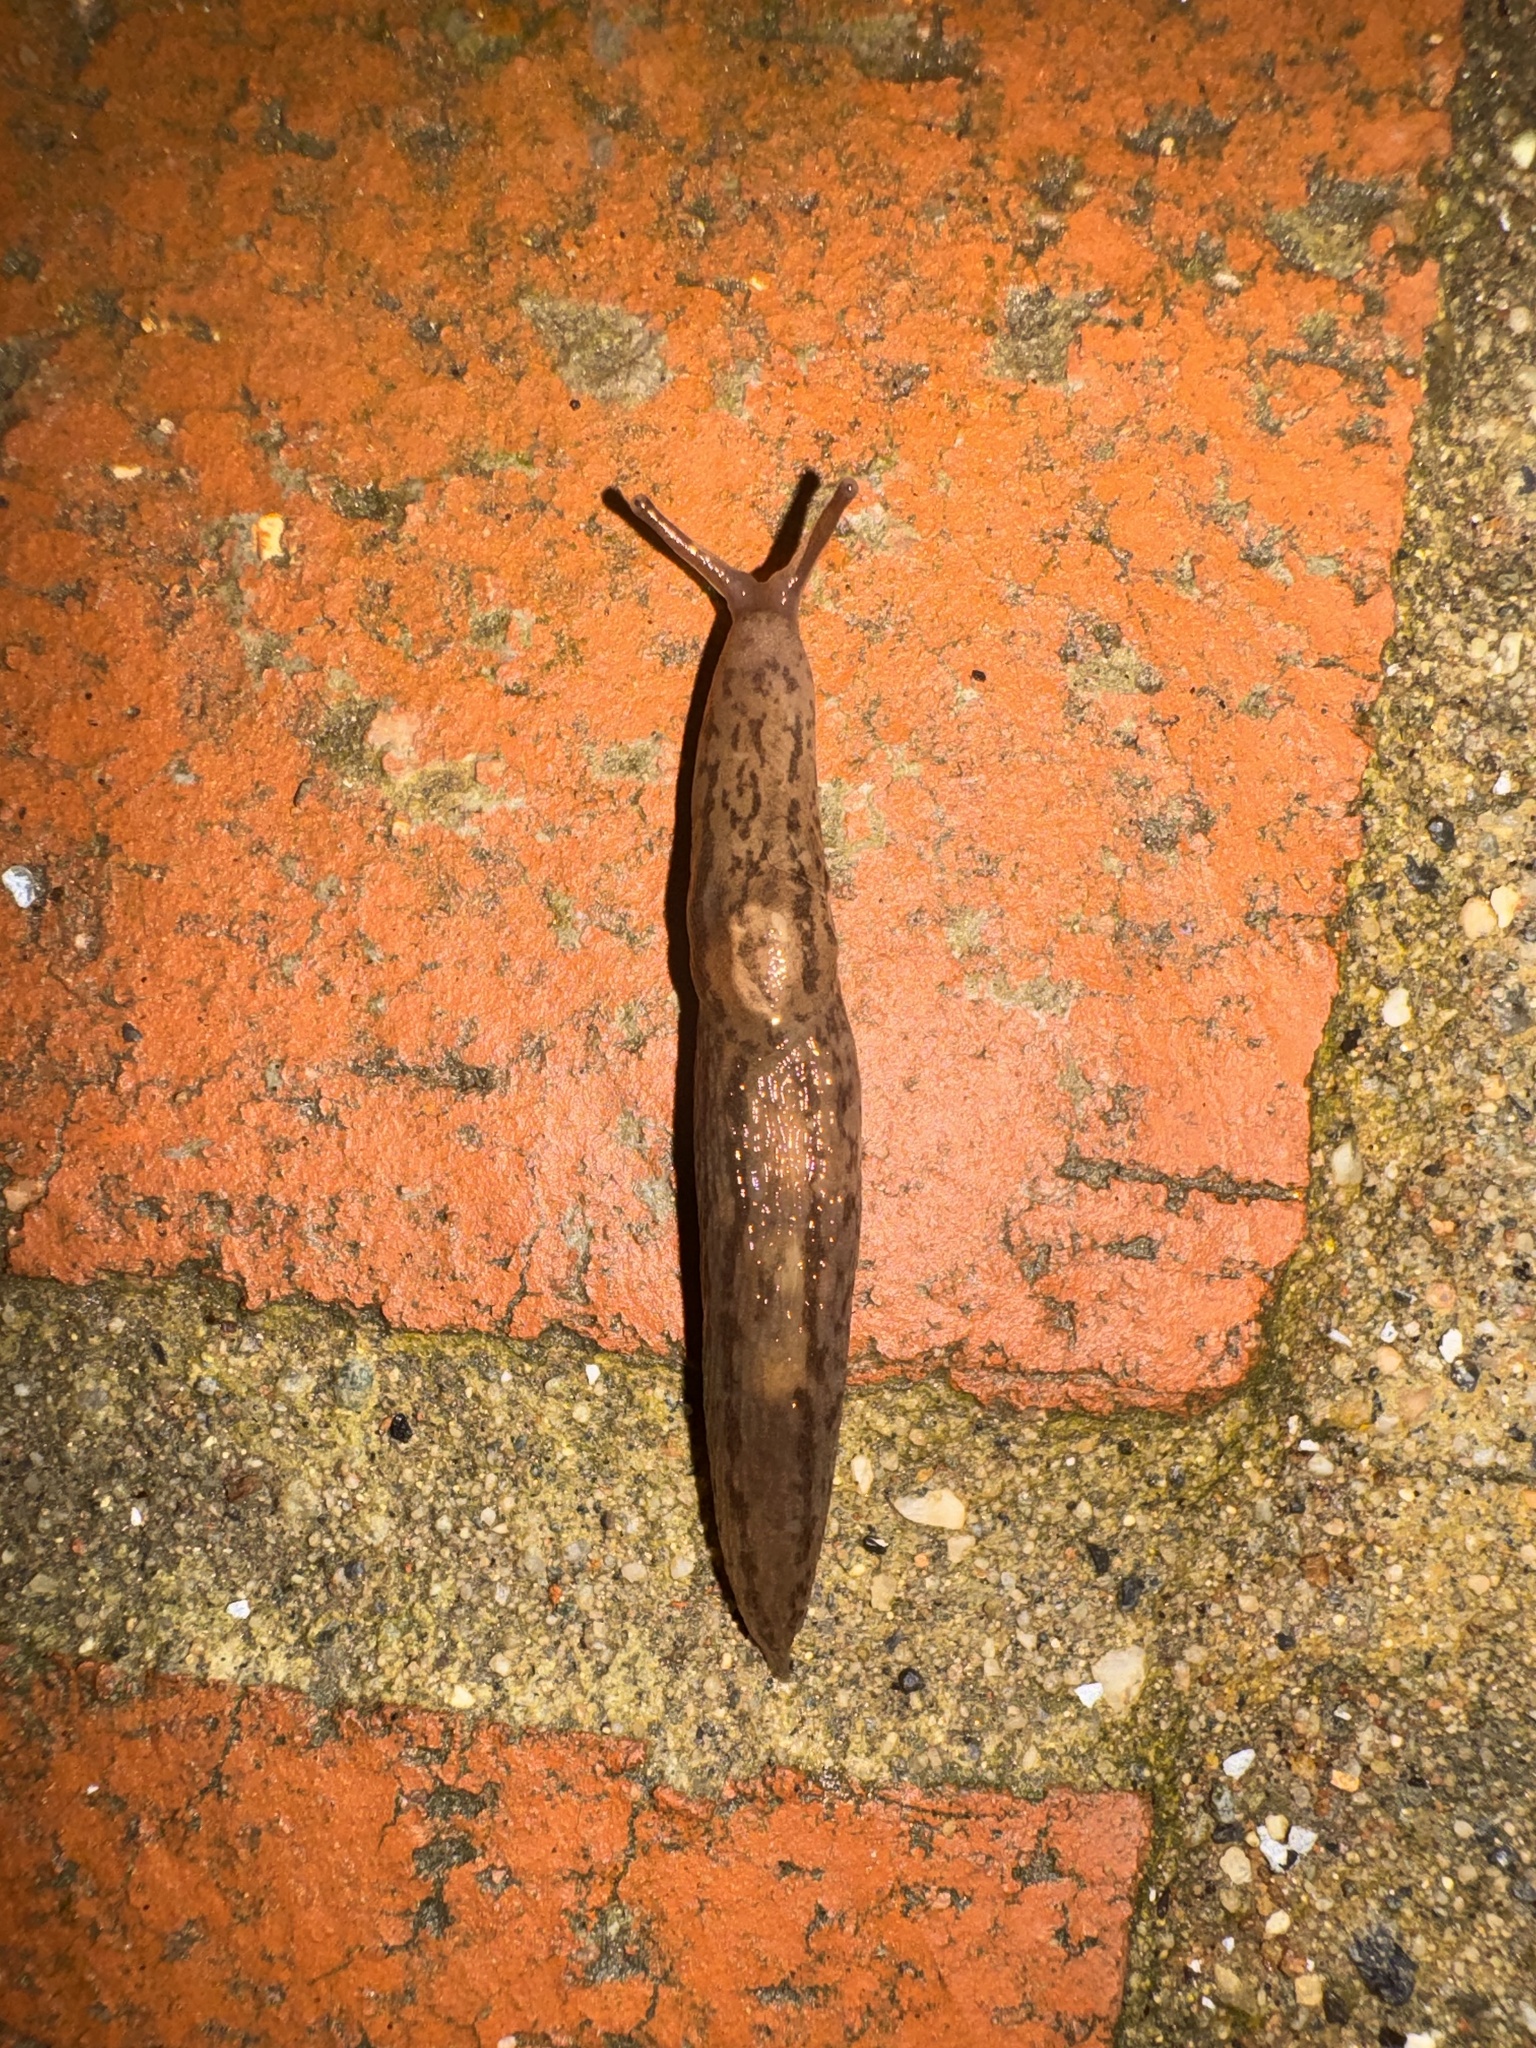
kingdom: Animalia
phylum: Mollusca
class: Gastropoda
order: Stylommatophora
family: Limacidae
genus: Ambigolimax
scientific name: Ambigolimax parvipenis
